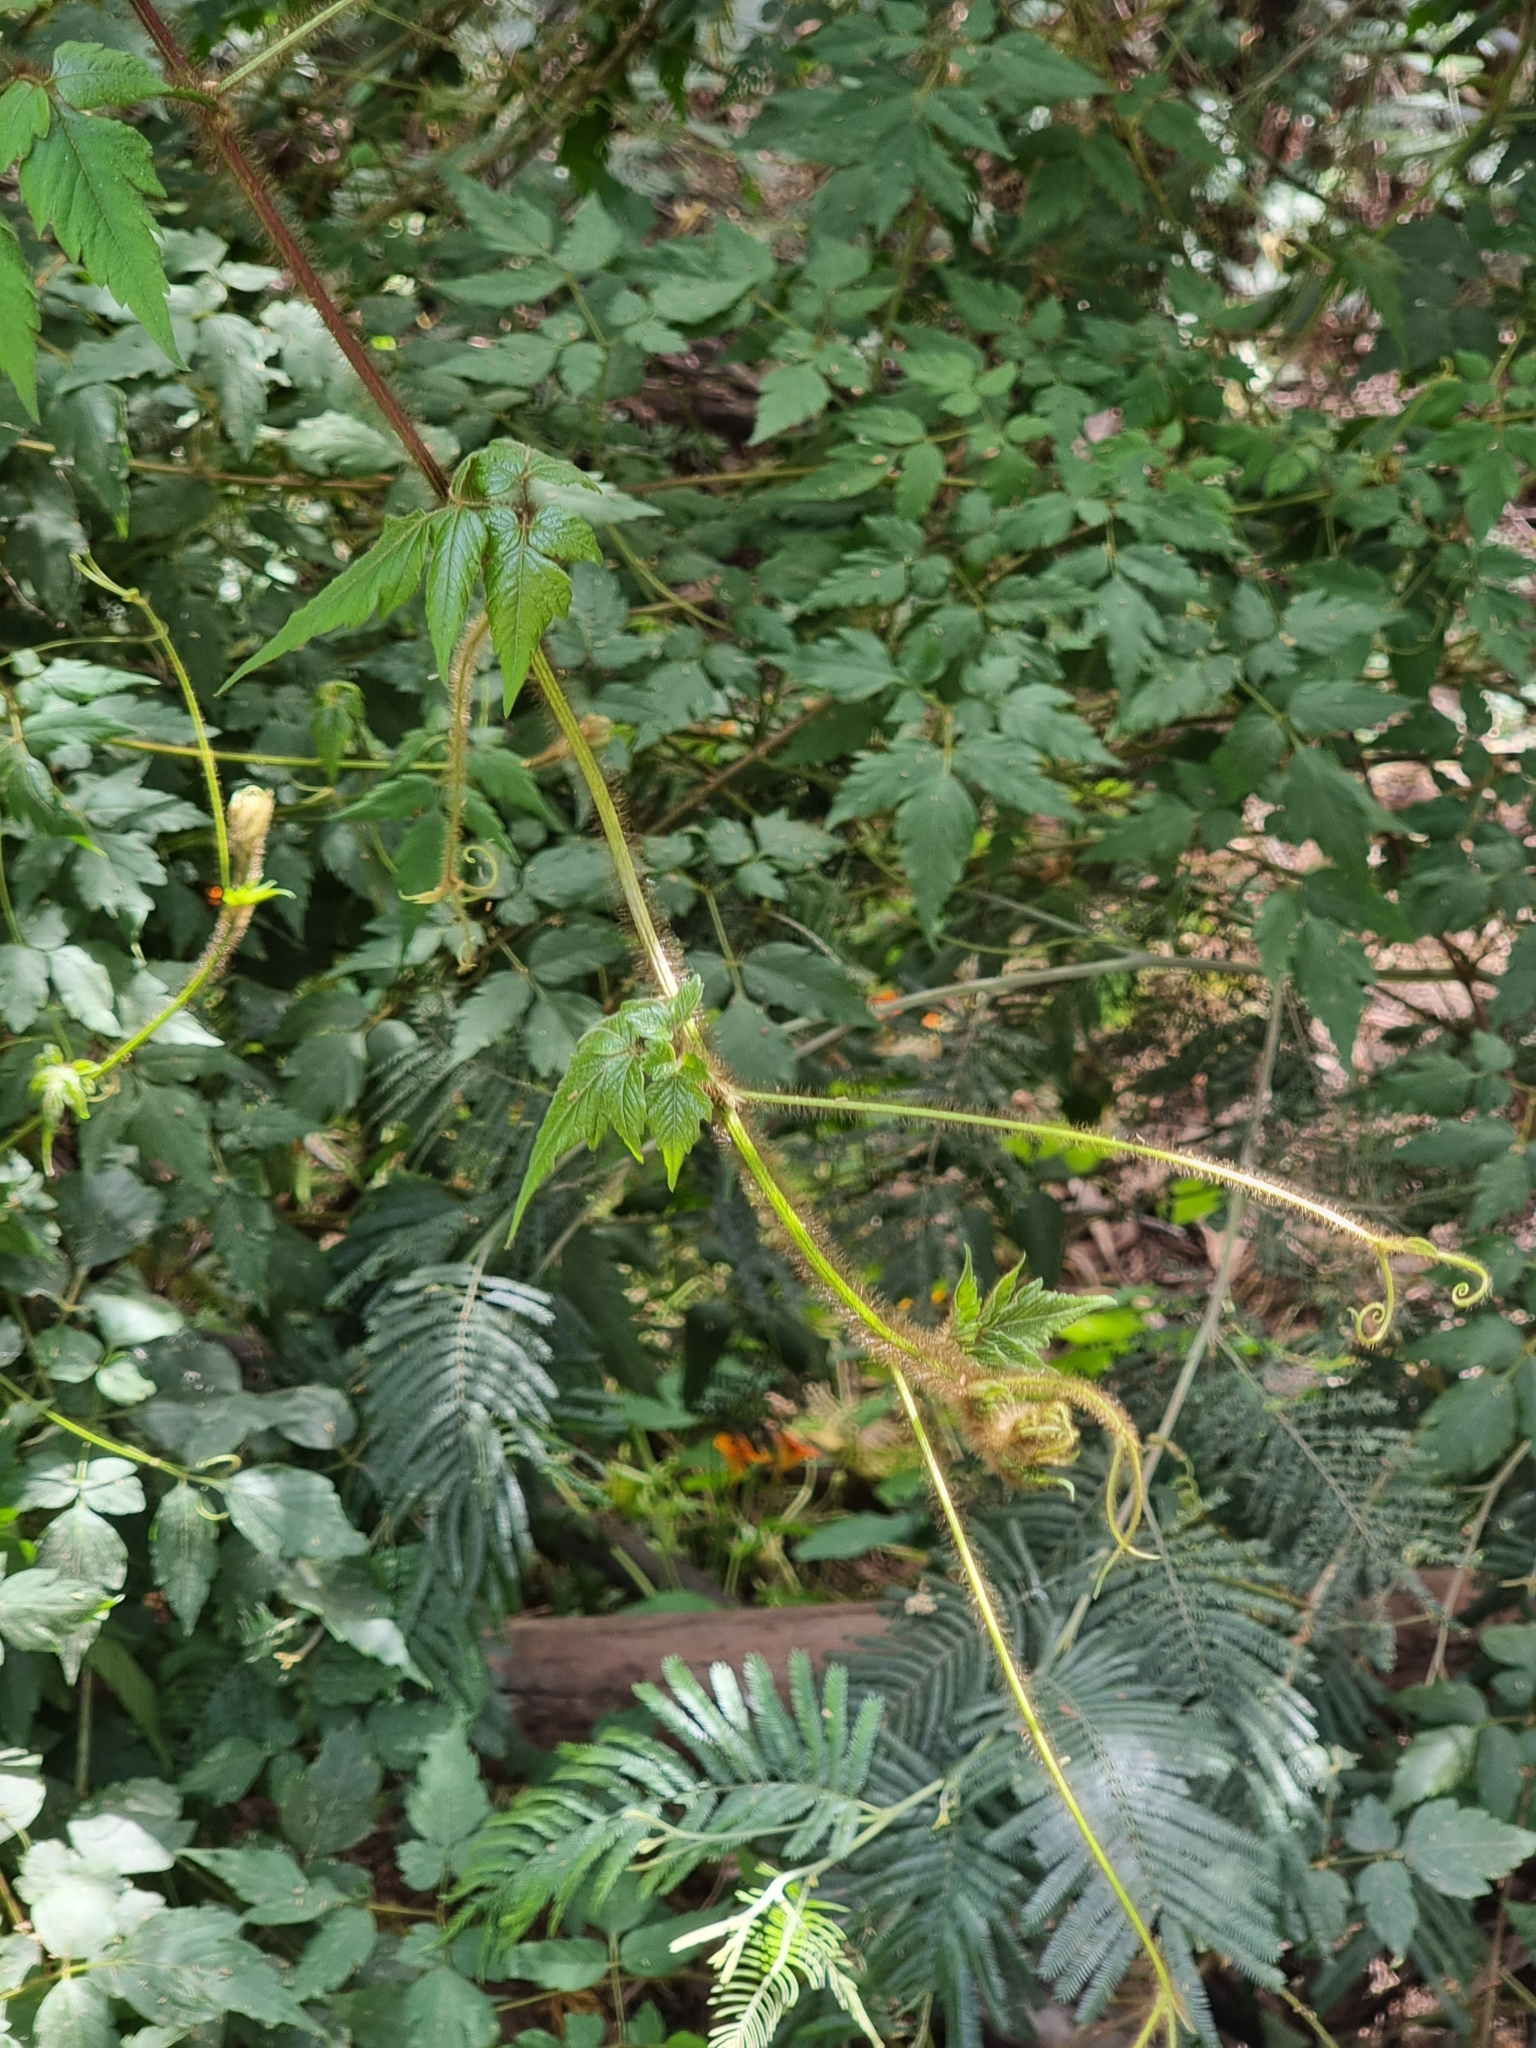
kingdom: Plantae
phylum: Tracheophyta
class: Magnoliopsida
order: Sapindales
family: Sapindaceae
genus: Cardiospermum
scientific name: Cardiospermum grandiflorum
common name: Balloon vine
